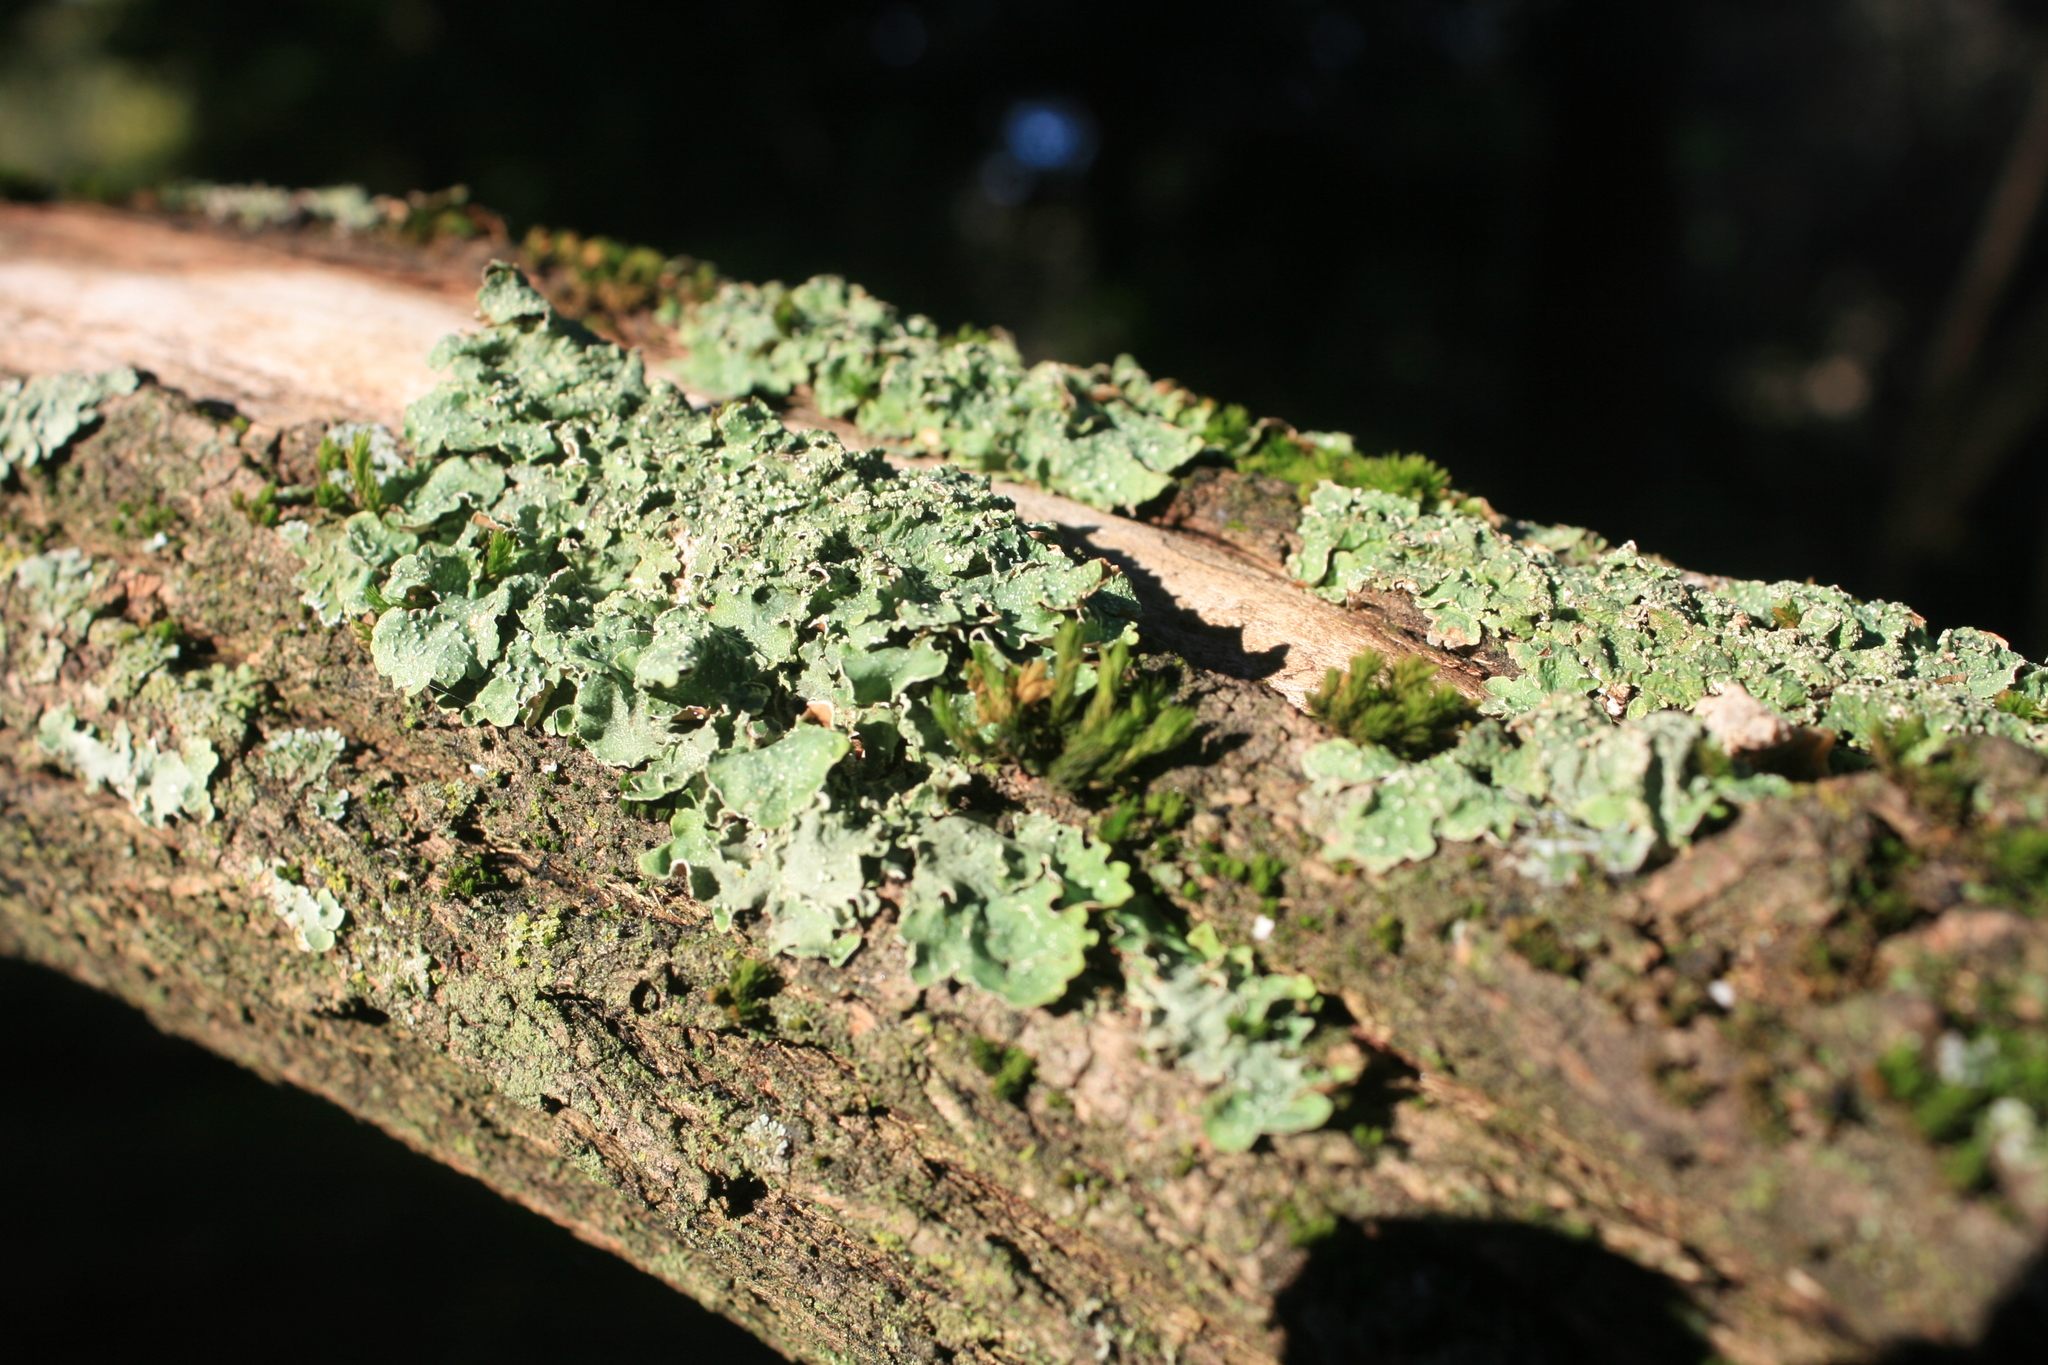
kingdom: Fungi
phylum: Ascomycota
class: Lecanoromycetes
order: Lecanorales
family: Parmeliaceae
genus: Flavopunctelia
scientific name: Flavopunctelia flaventior
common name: Speckled greenshield
